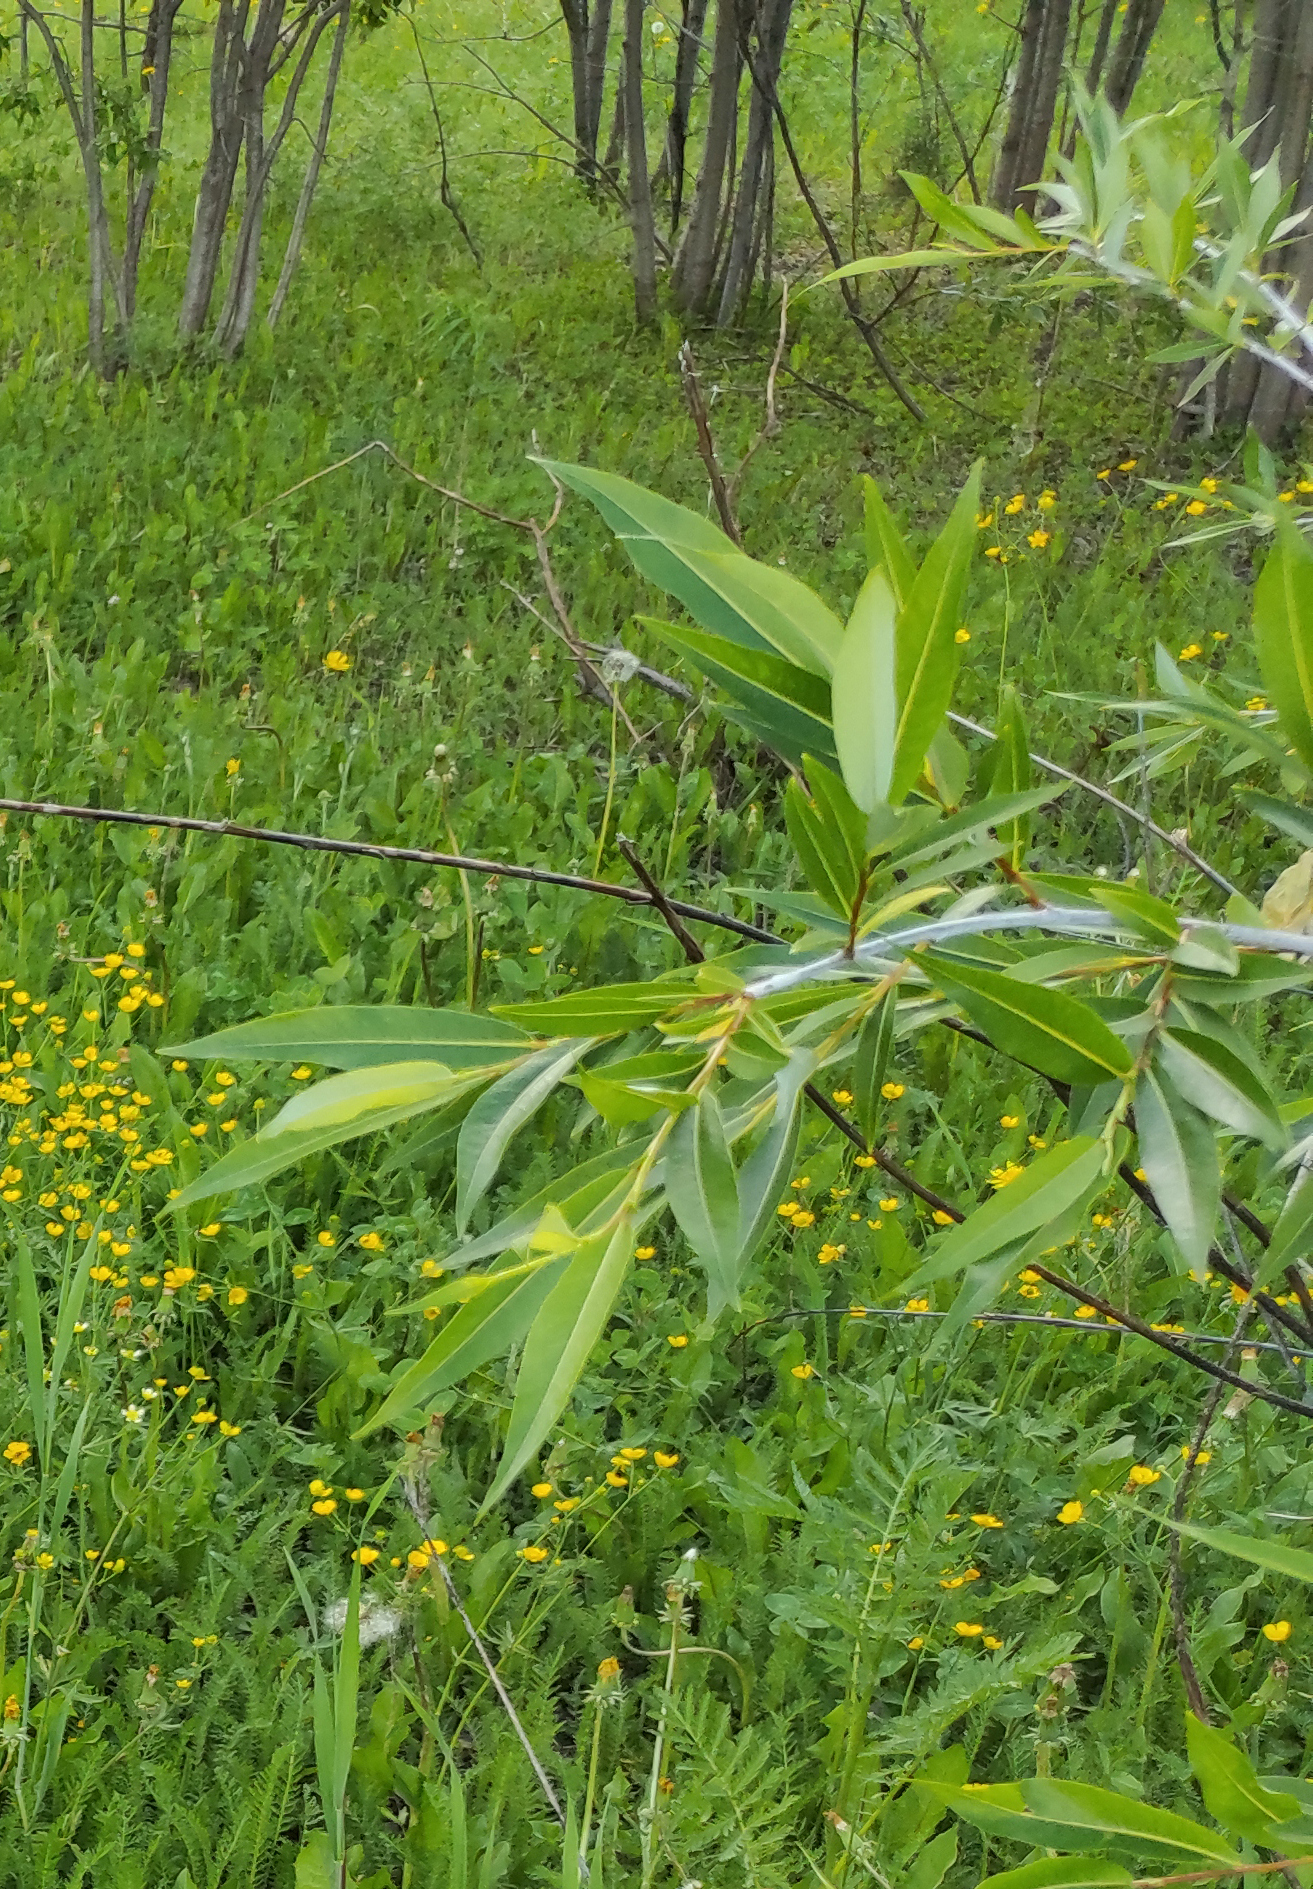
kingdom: Plantae
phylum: Tracheophyta
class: Magnoliopsida
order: Malpighiales
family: Salicaceae
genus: Salix
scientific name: Salix rorida
